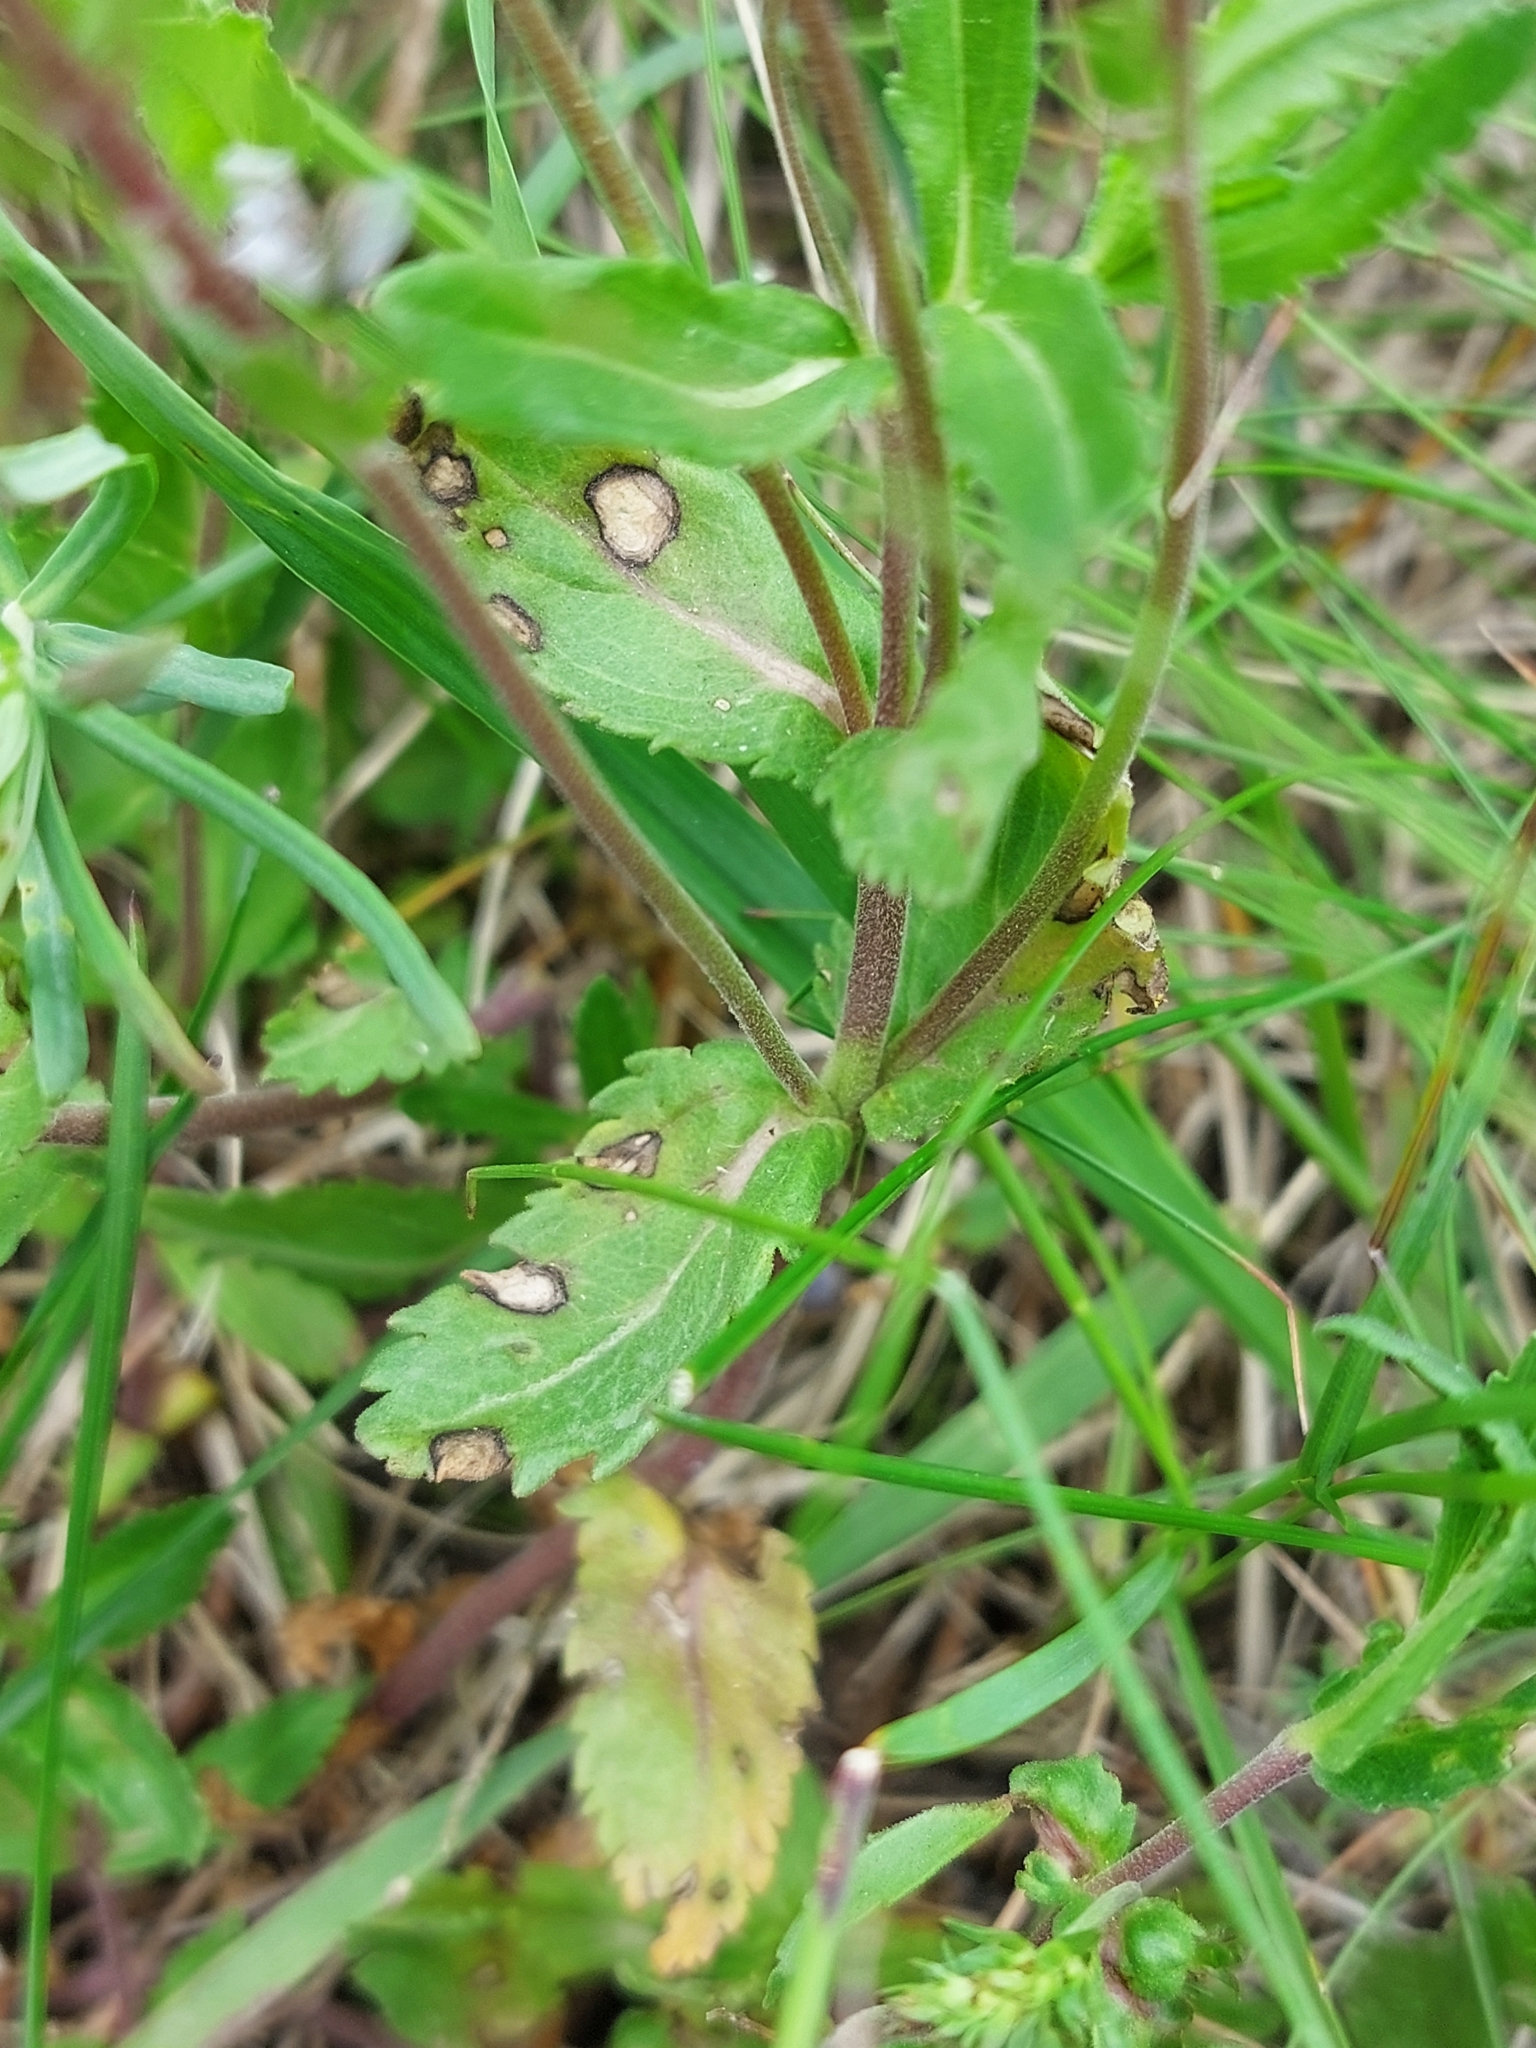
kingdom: Plantae
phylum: Tracheophyta
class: Magnoliopsida
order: Lamiales
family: Plantaginaceae
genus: Veronica
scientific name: Veronica prostrata
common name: Prostrate speedwell
